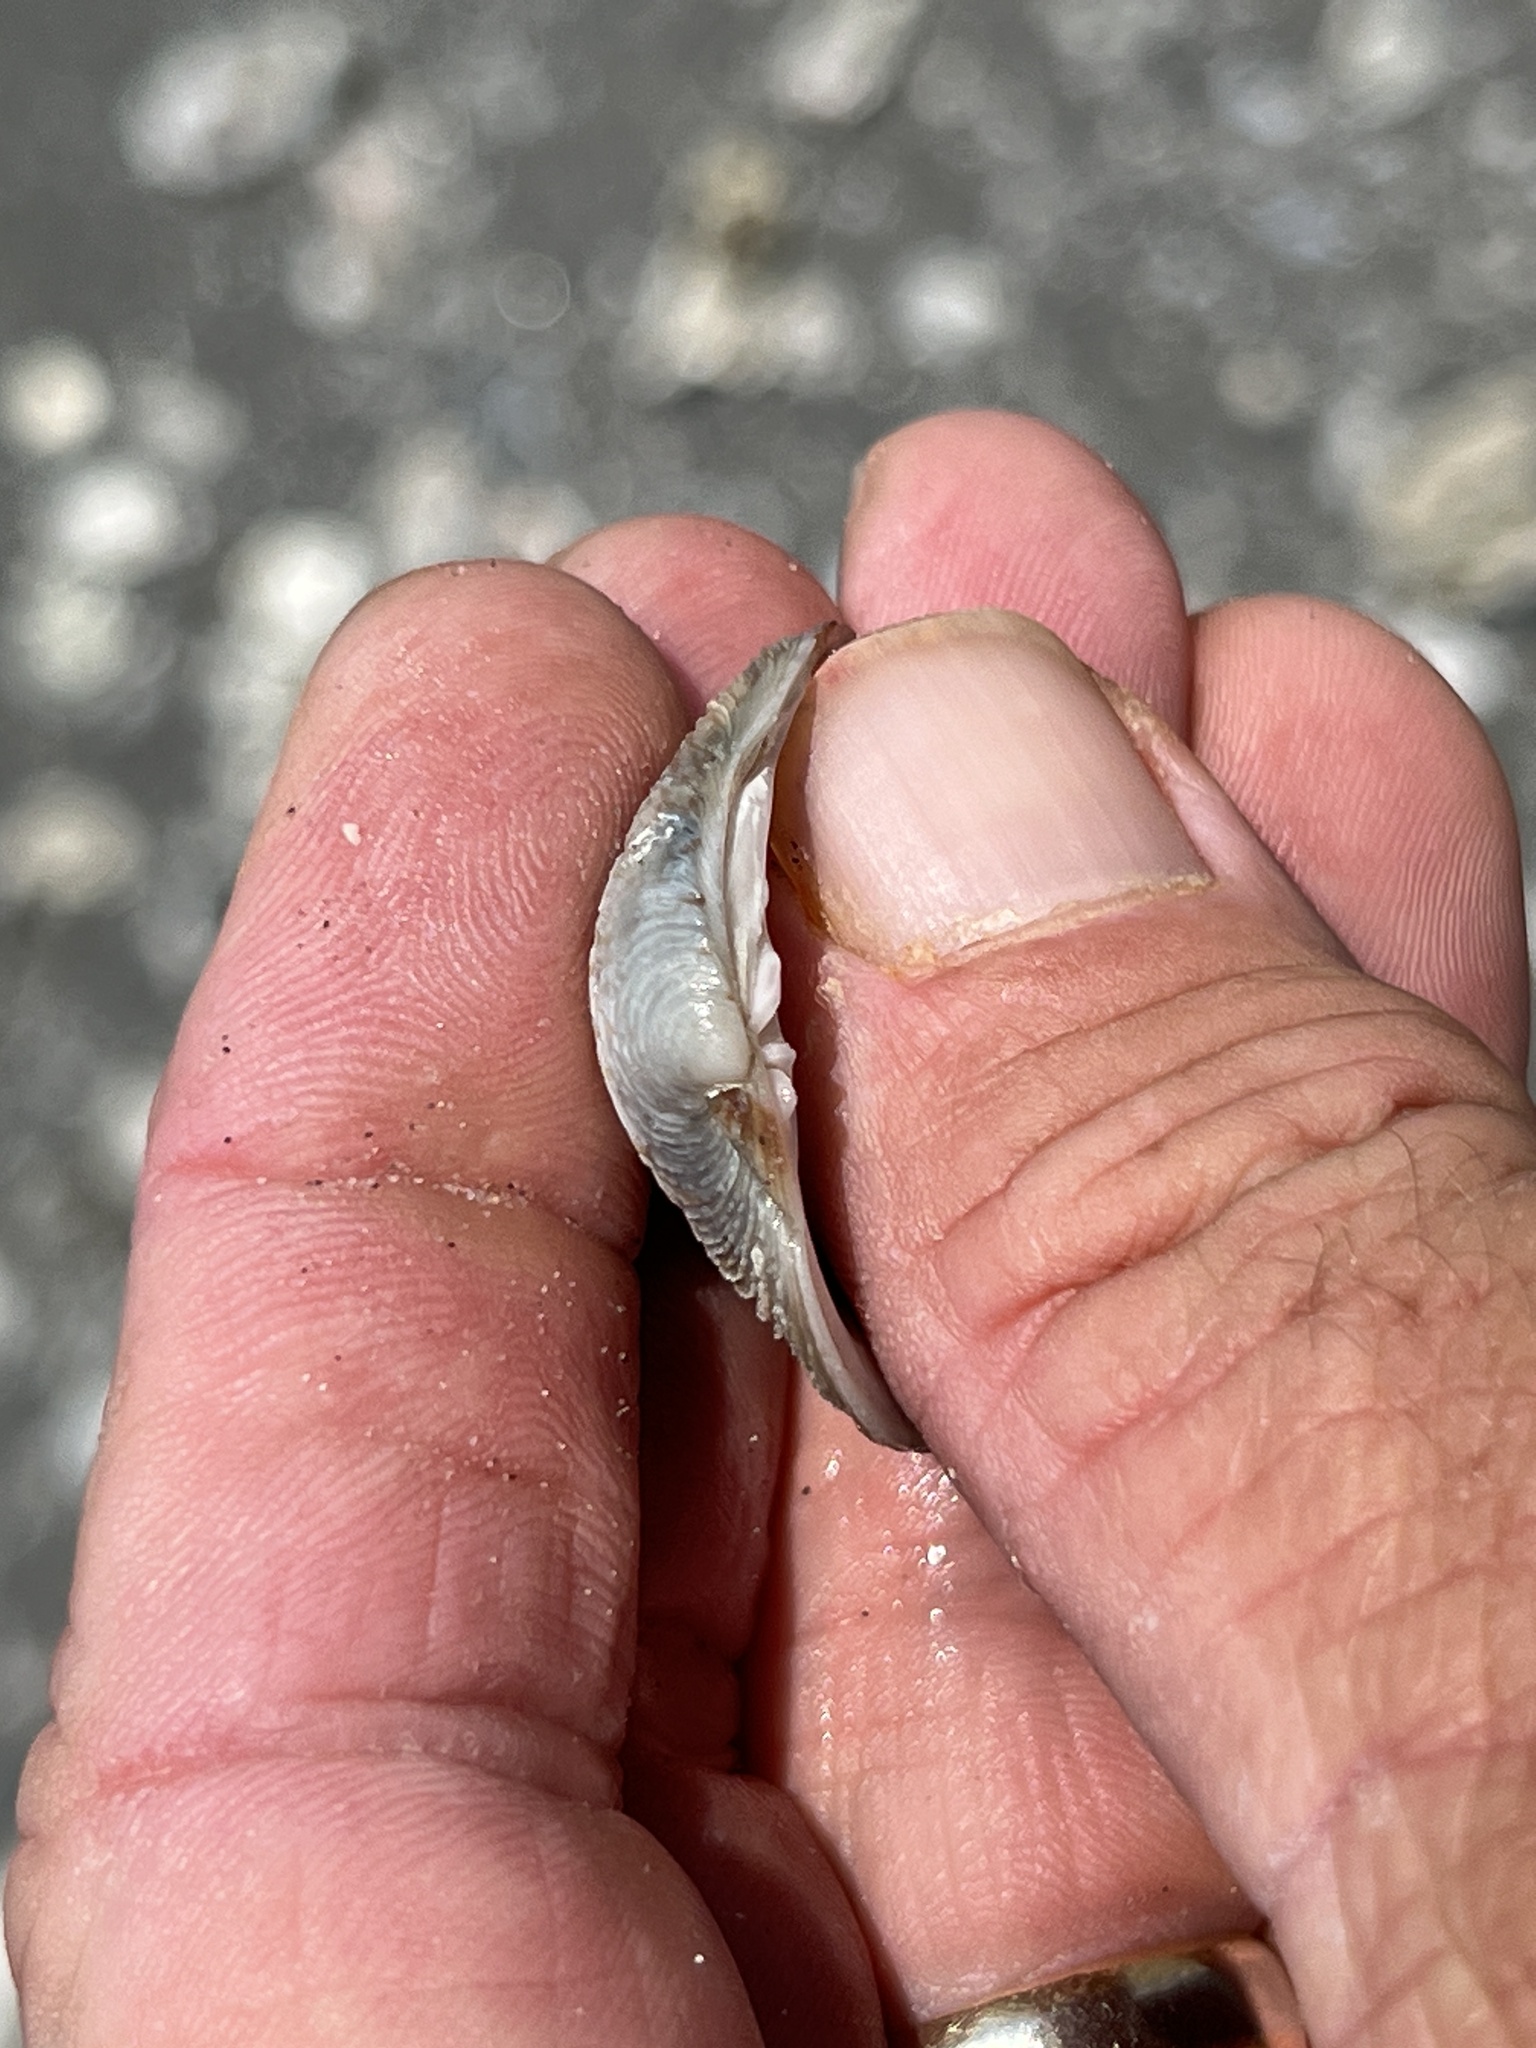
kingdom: Animalia
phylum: Mollusca
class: Bivalvia
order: Venerida
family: Veneridae
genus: Mercenaria
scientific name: Mercenaria campechiensis
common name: Südliche quahog-muschel
